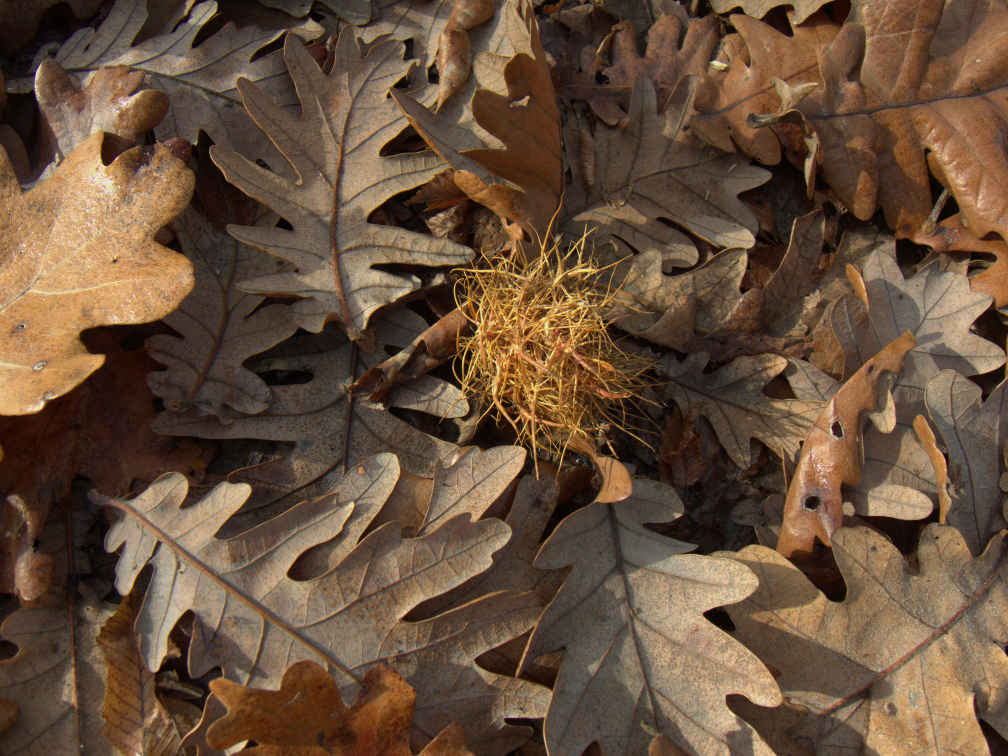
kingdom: Animalia
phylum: Arthropoda
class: Insecta
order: Hymenoptera
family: Cynipidae
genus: Andricus
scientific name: Andricus caputmedusae
